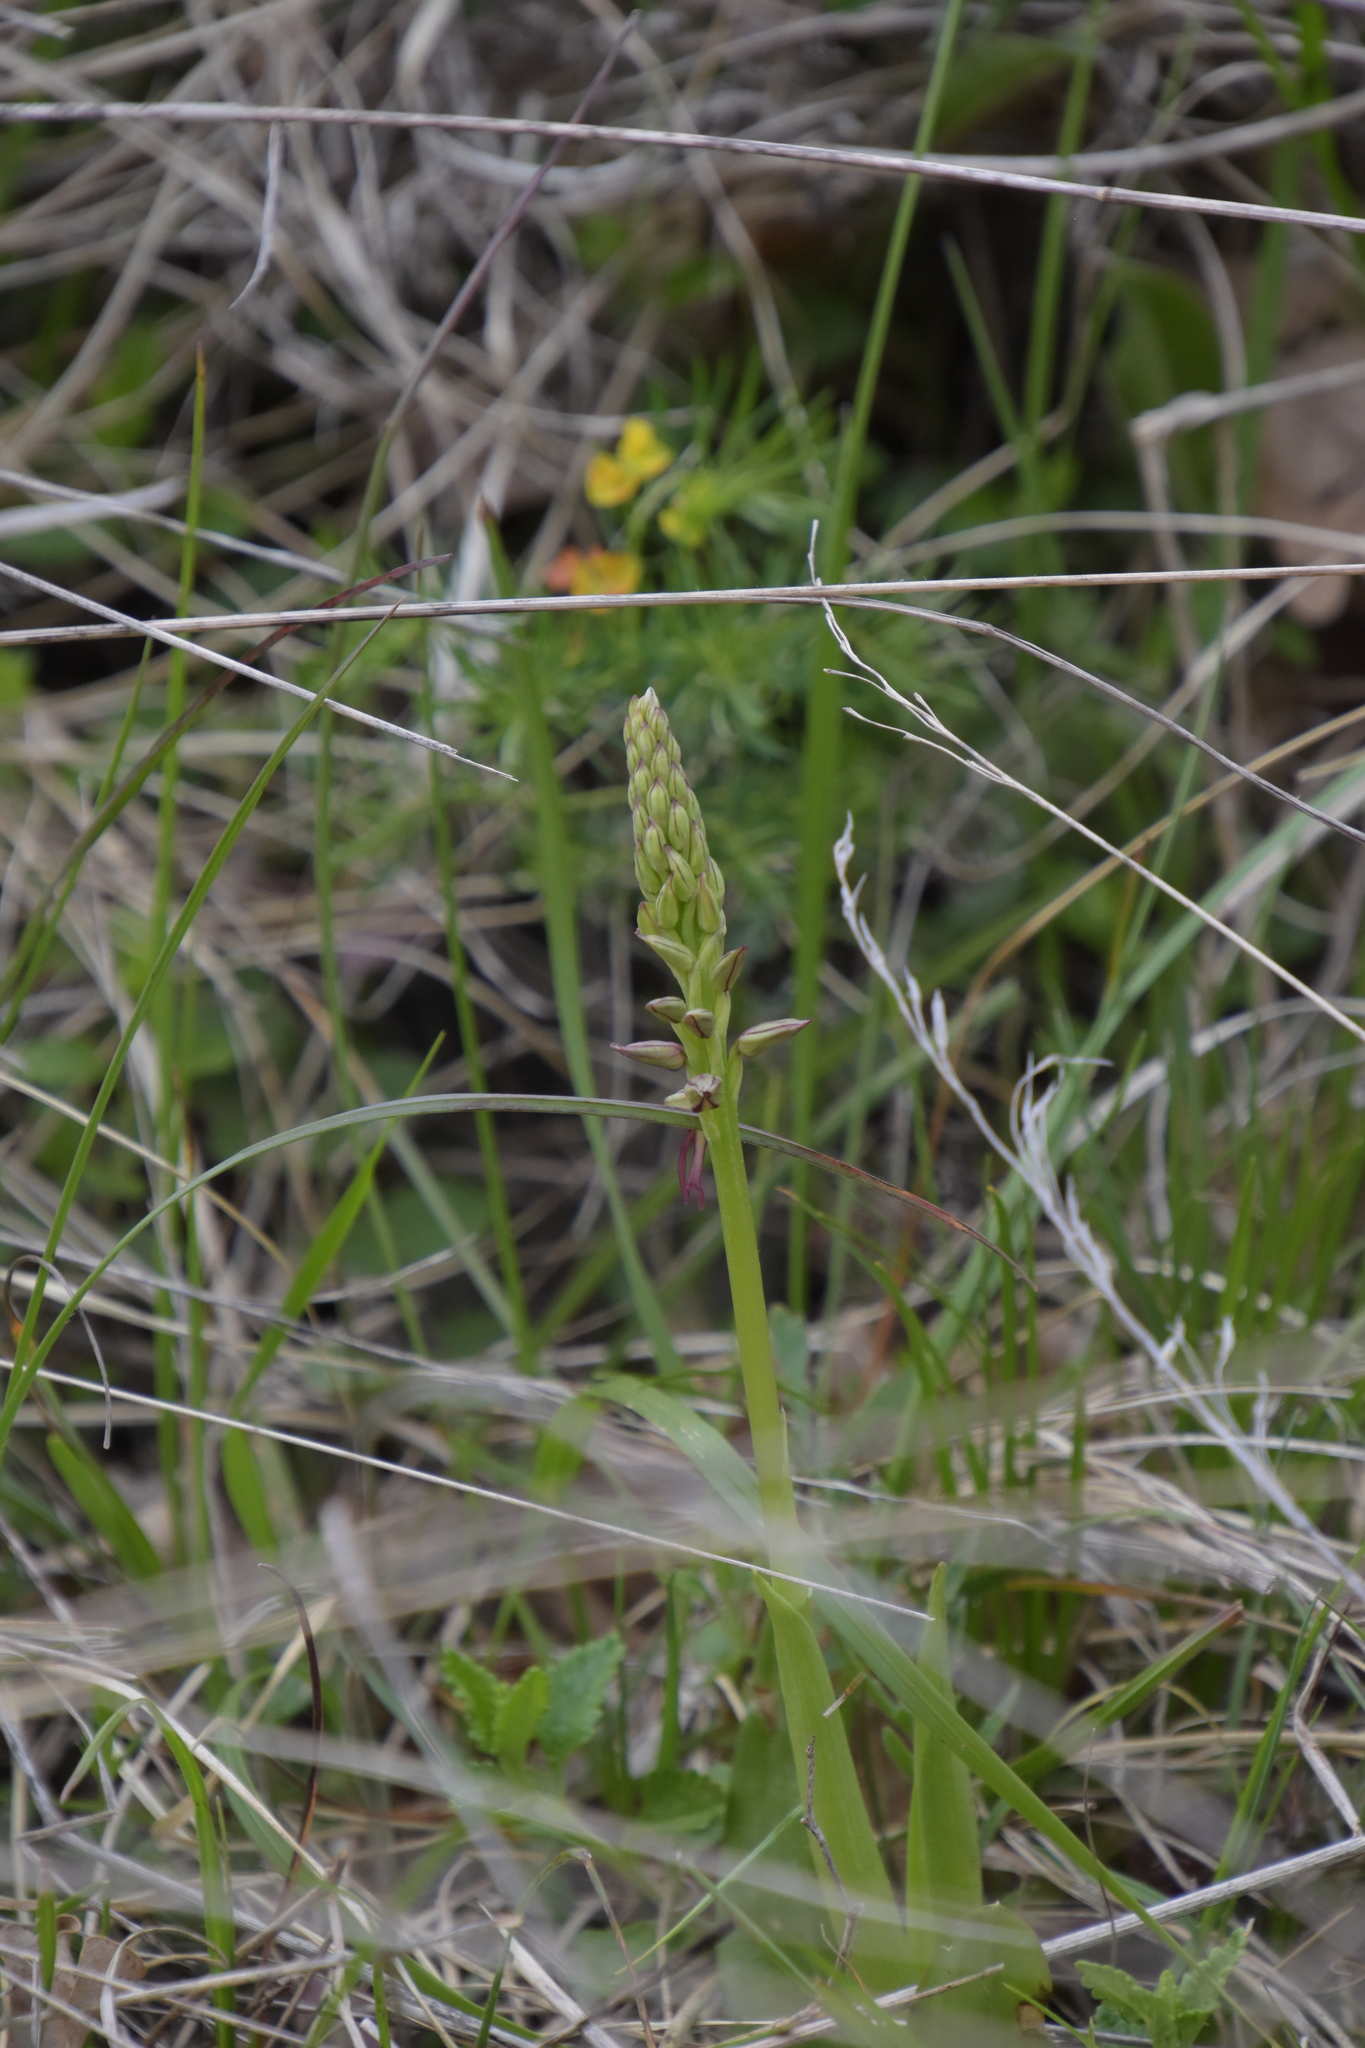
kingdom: Plantae
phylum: Tracheophyta
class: Liliopsida
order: Asparagales
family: Orchidaceae
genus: Orchis
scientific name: Orchis anthropophora
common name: Man orchid
